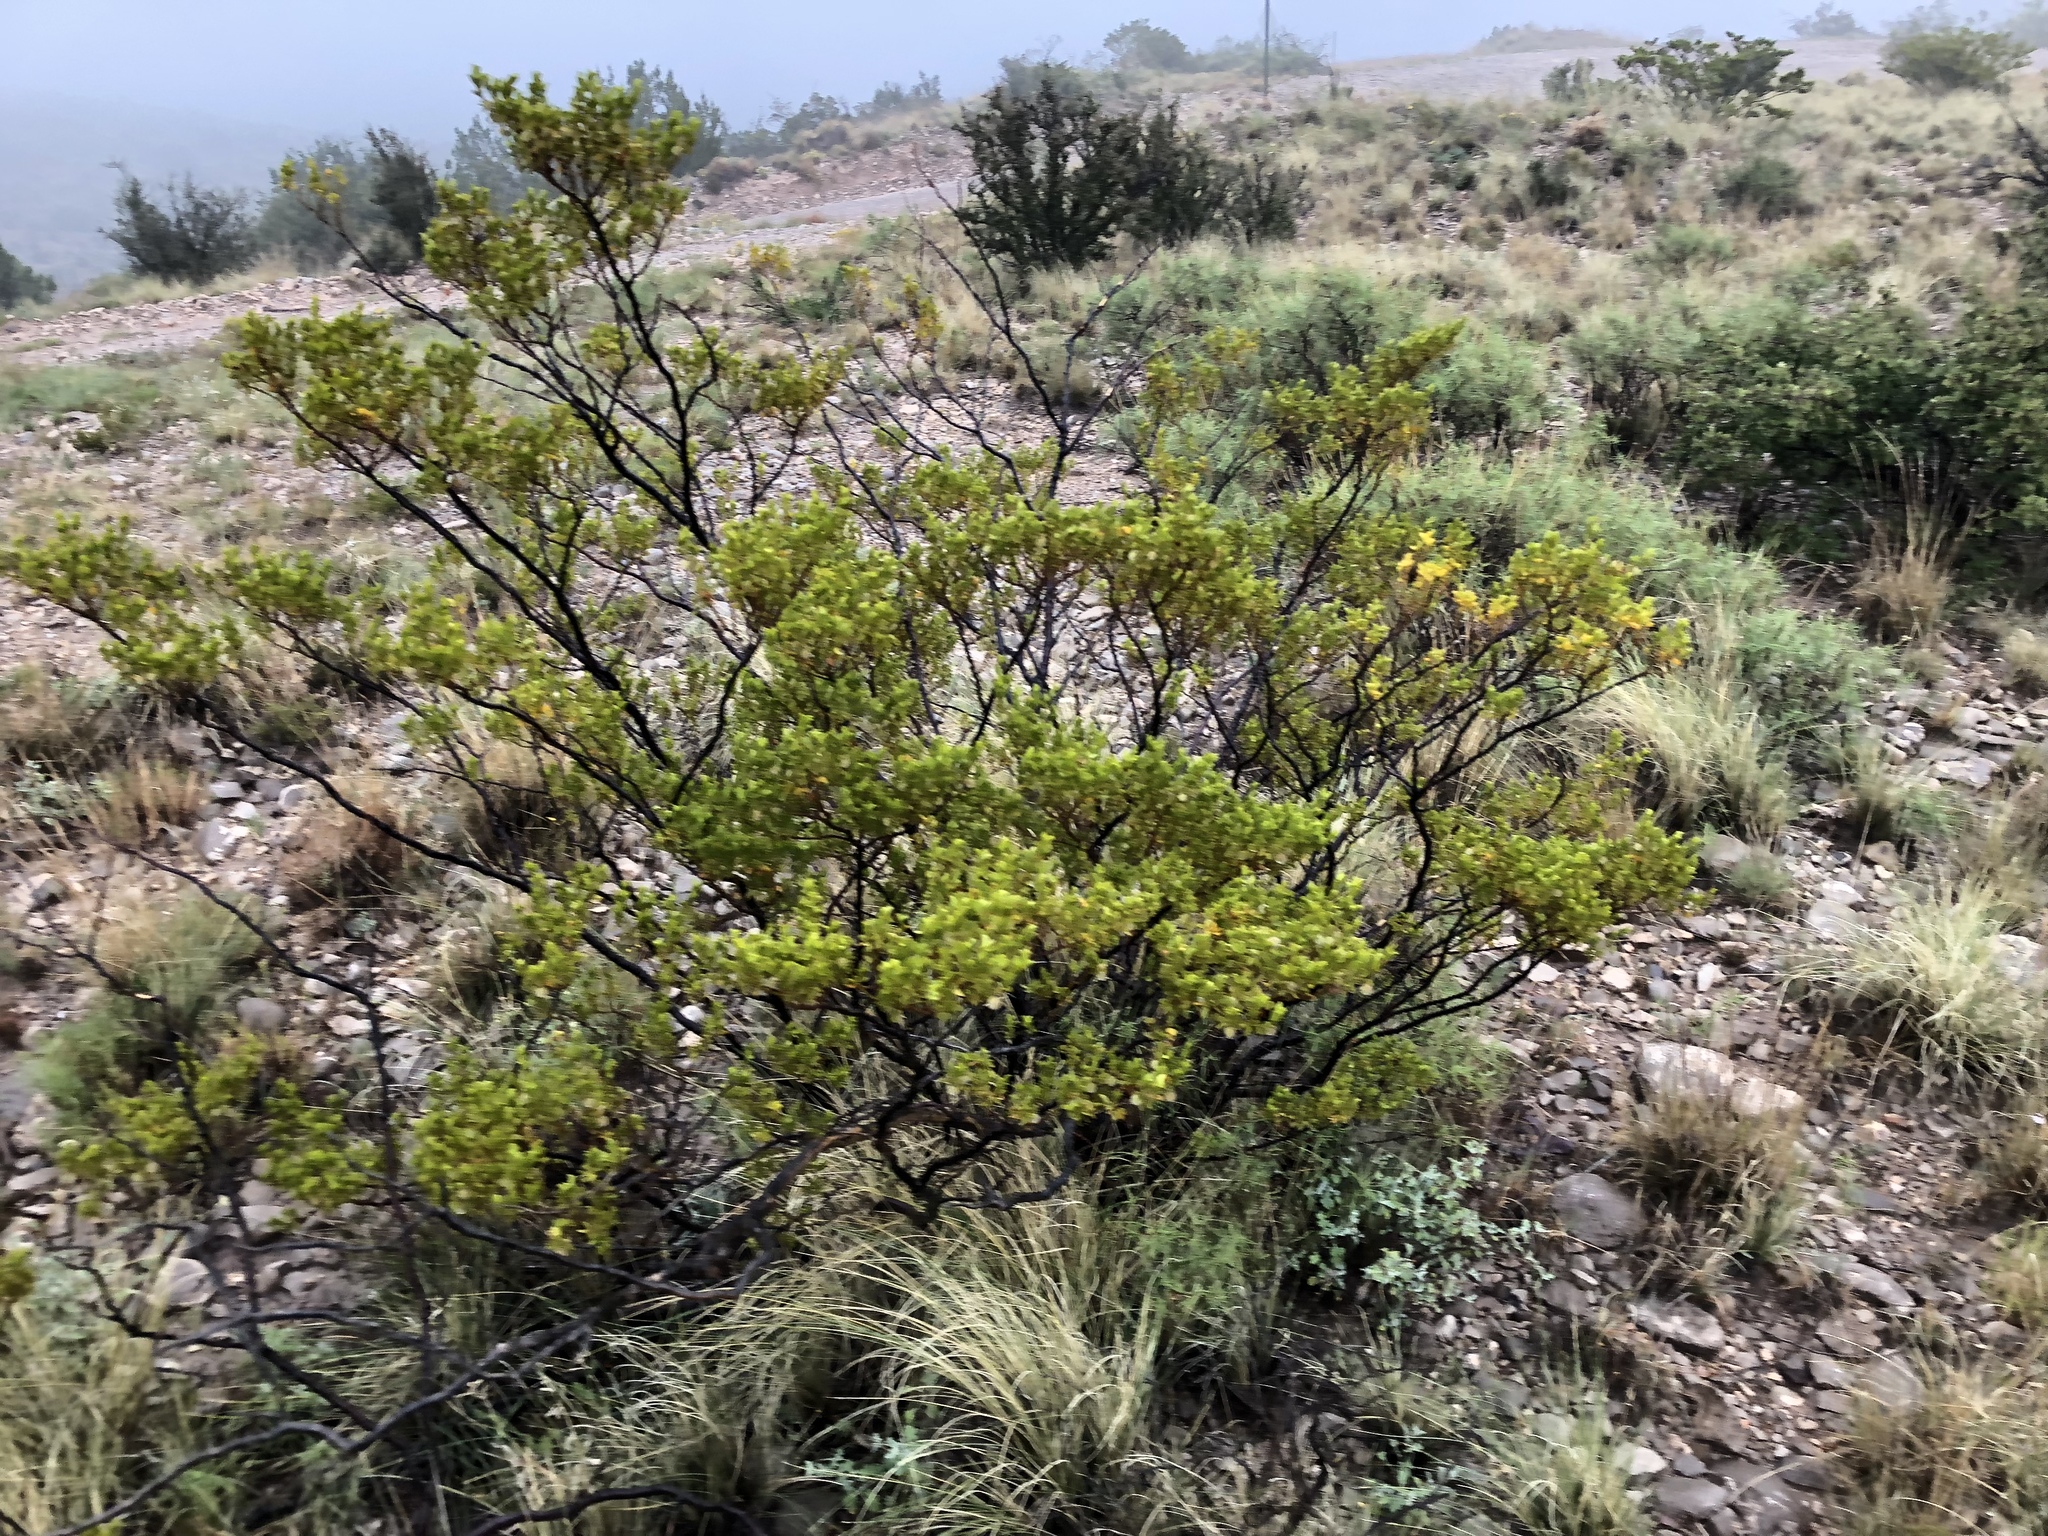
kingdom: Plantae
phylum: Tracheophyta
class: Magnoliopsida
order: Zygophyllales
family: Zygophyllaceae
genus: Larrea
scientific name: Larrea tridentata
